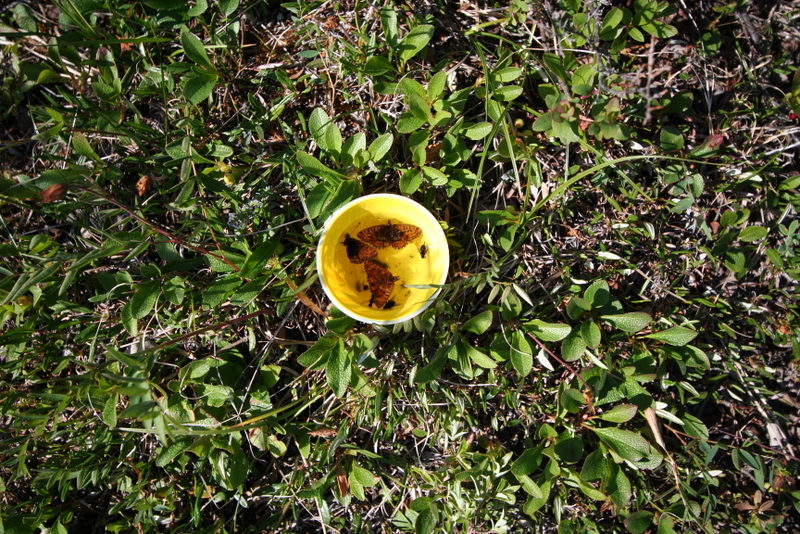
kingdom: Plantae
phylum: Tracheophyta
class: Magnoliopsida
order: Ericales
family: Ericaceae
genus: Arctostaphylos
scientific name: Arctostaphylos rubra
